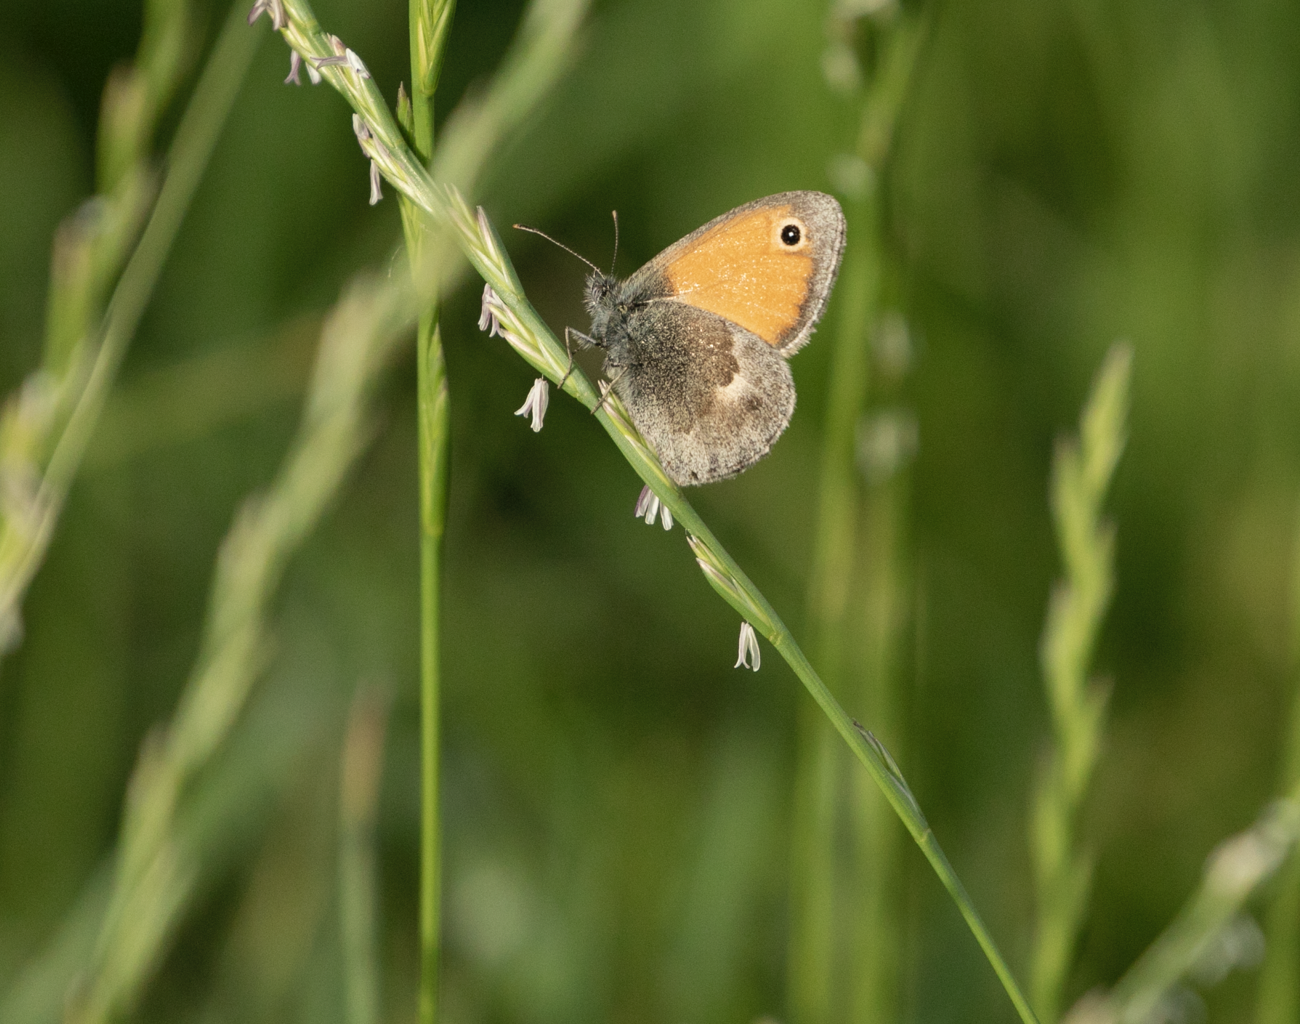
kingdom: Animalia
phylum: Arthropoda
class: Insecta
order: Lepidoptera
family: Nymphalidae
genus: Coenonympha
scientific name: Coenonympha pamphilus
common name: Small heath
